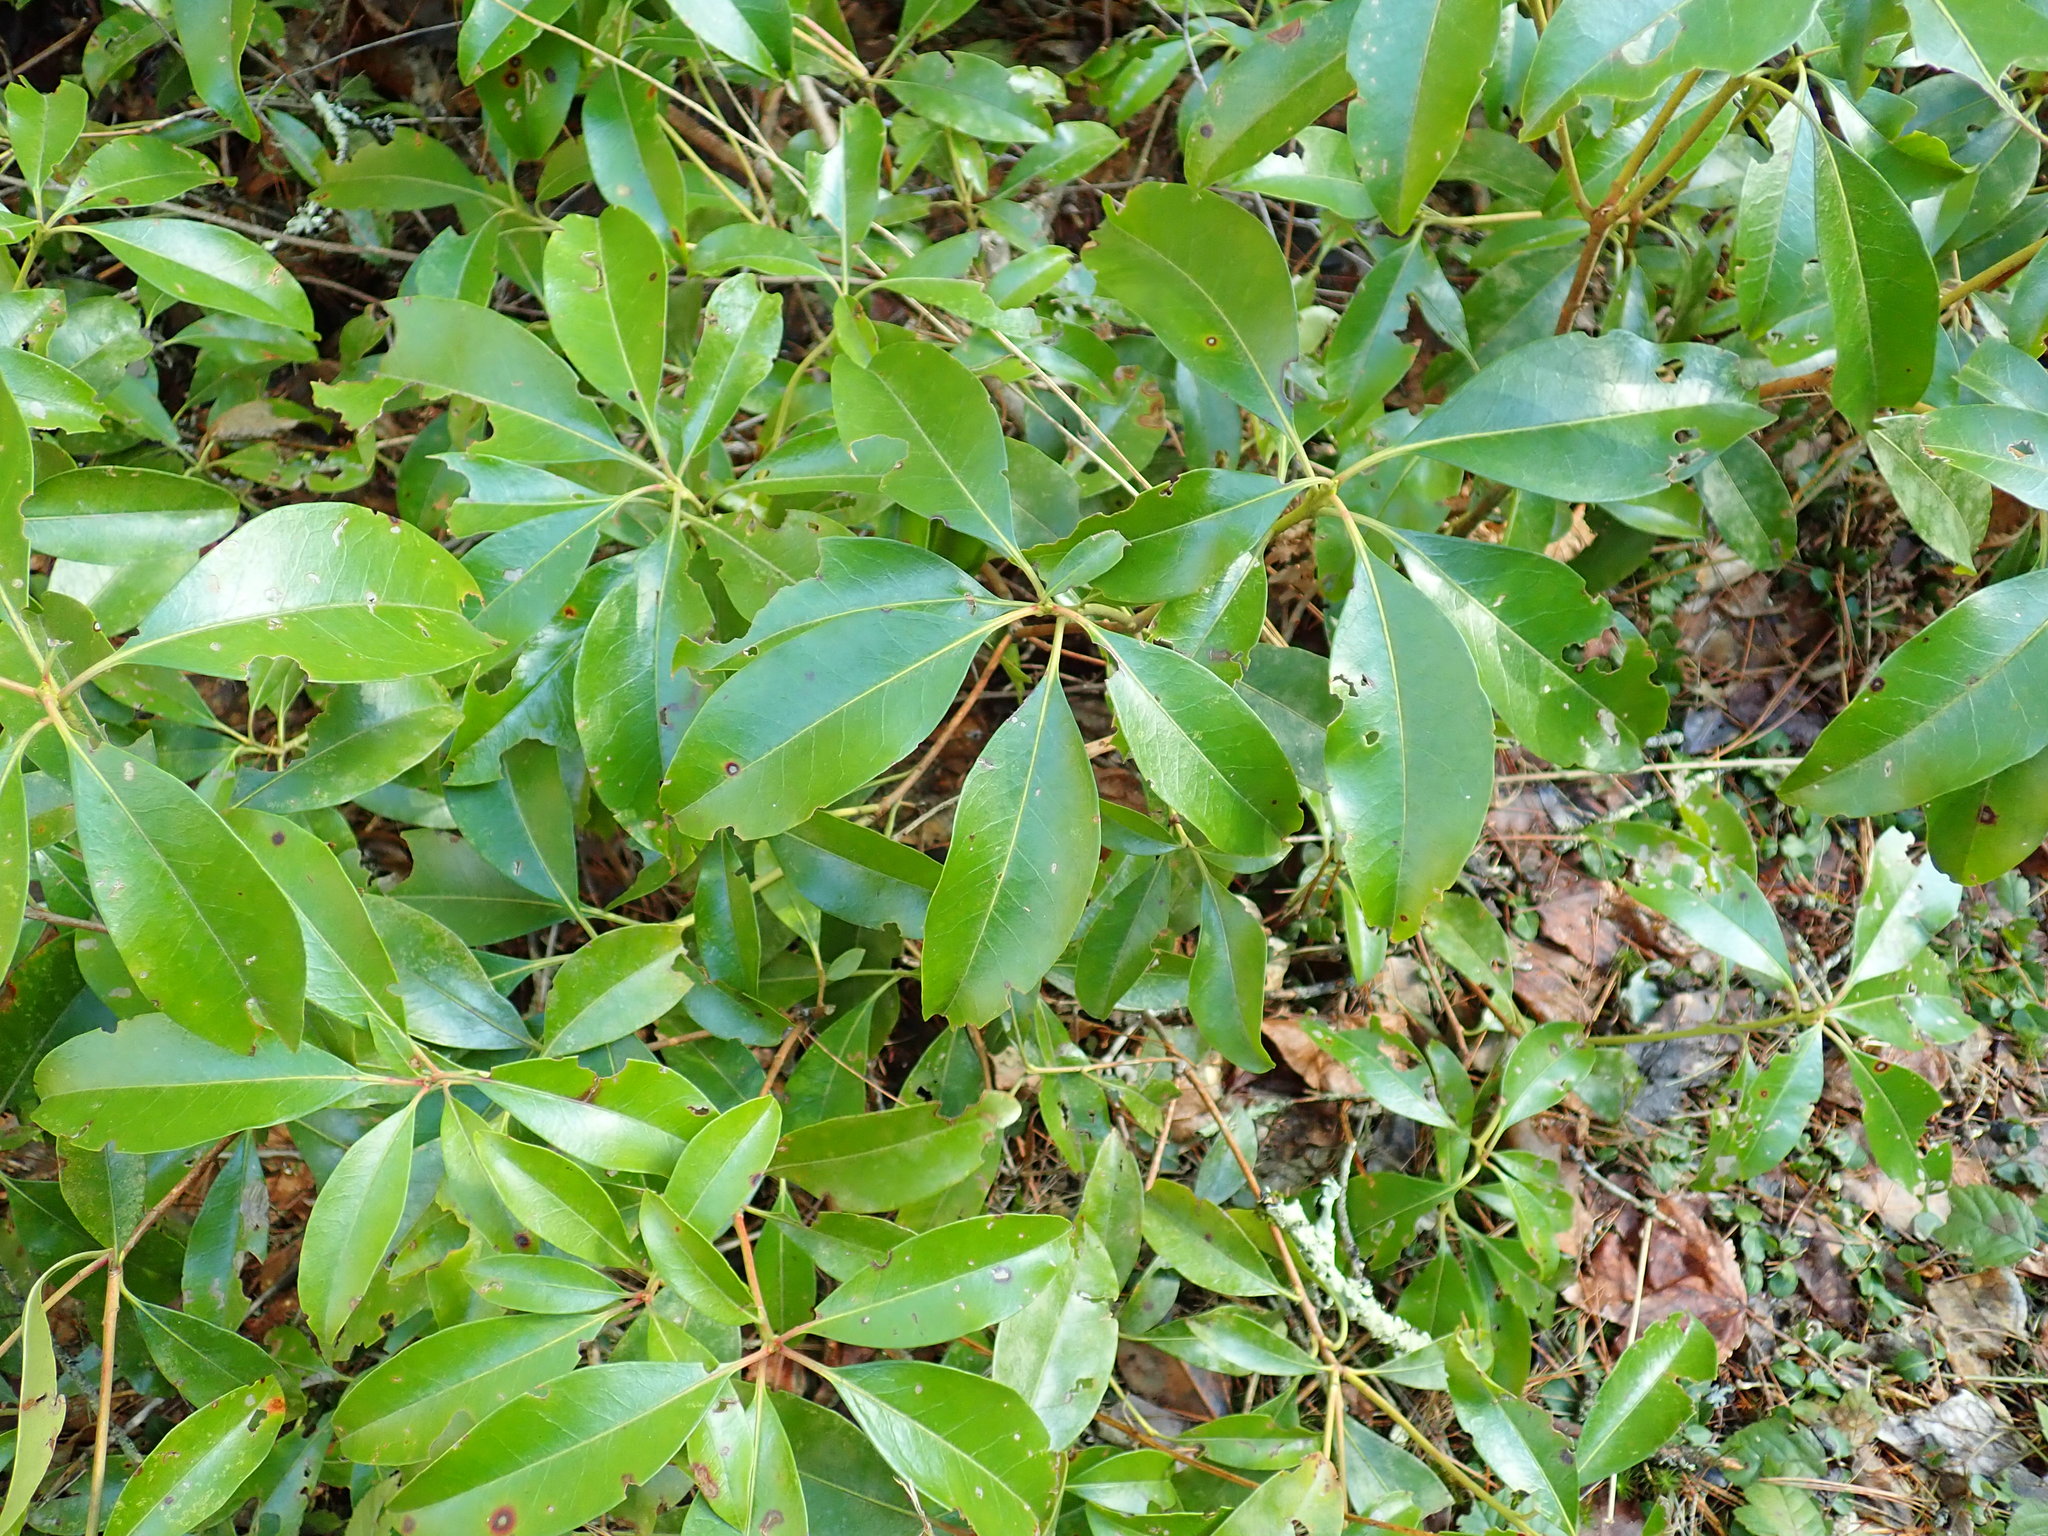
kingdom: Plantae
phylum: Tracheophyta
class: Magnoliopsida
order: Ericales
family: Ericaceae
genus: Kalmia
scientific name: Kalmia latifolia
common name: Mountain-laurel
